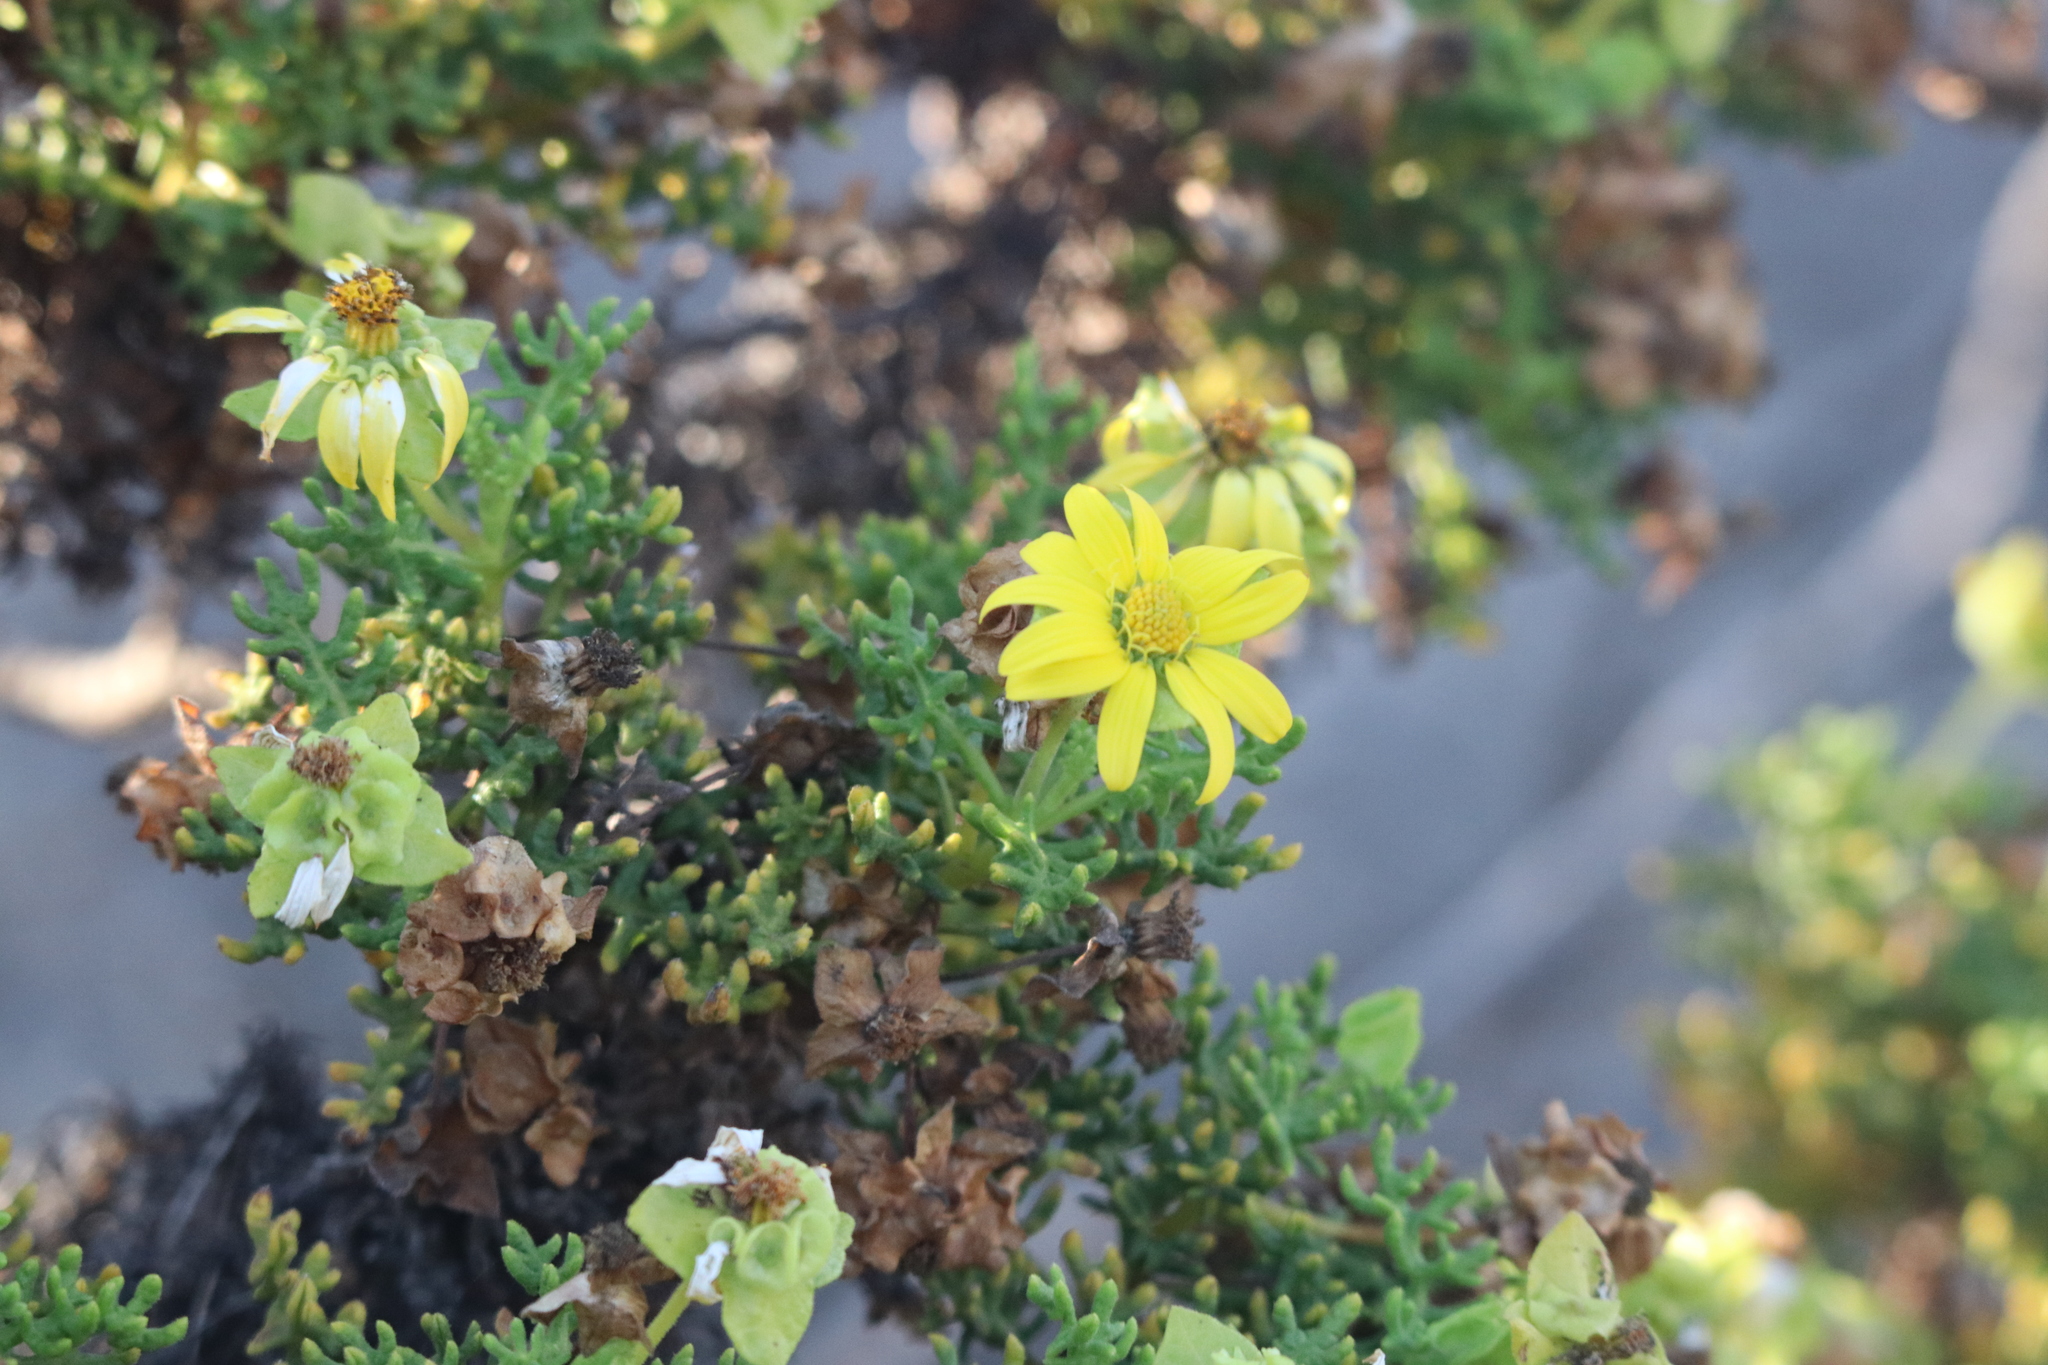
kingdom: Plantae
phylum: Tracheophyta
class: Magnoliopsida
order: Asterales
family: Asteraceae
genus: Lecocarpus
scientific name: Lecocarpus pinnatifidus
